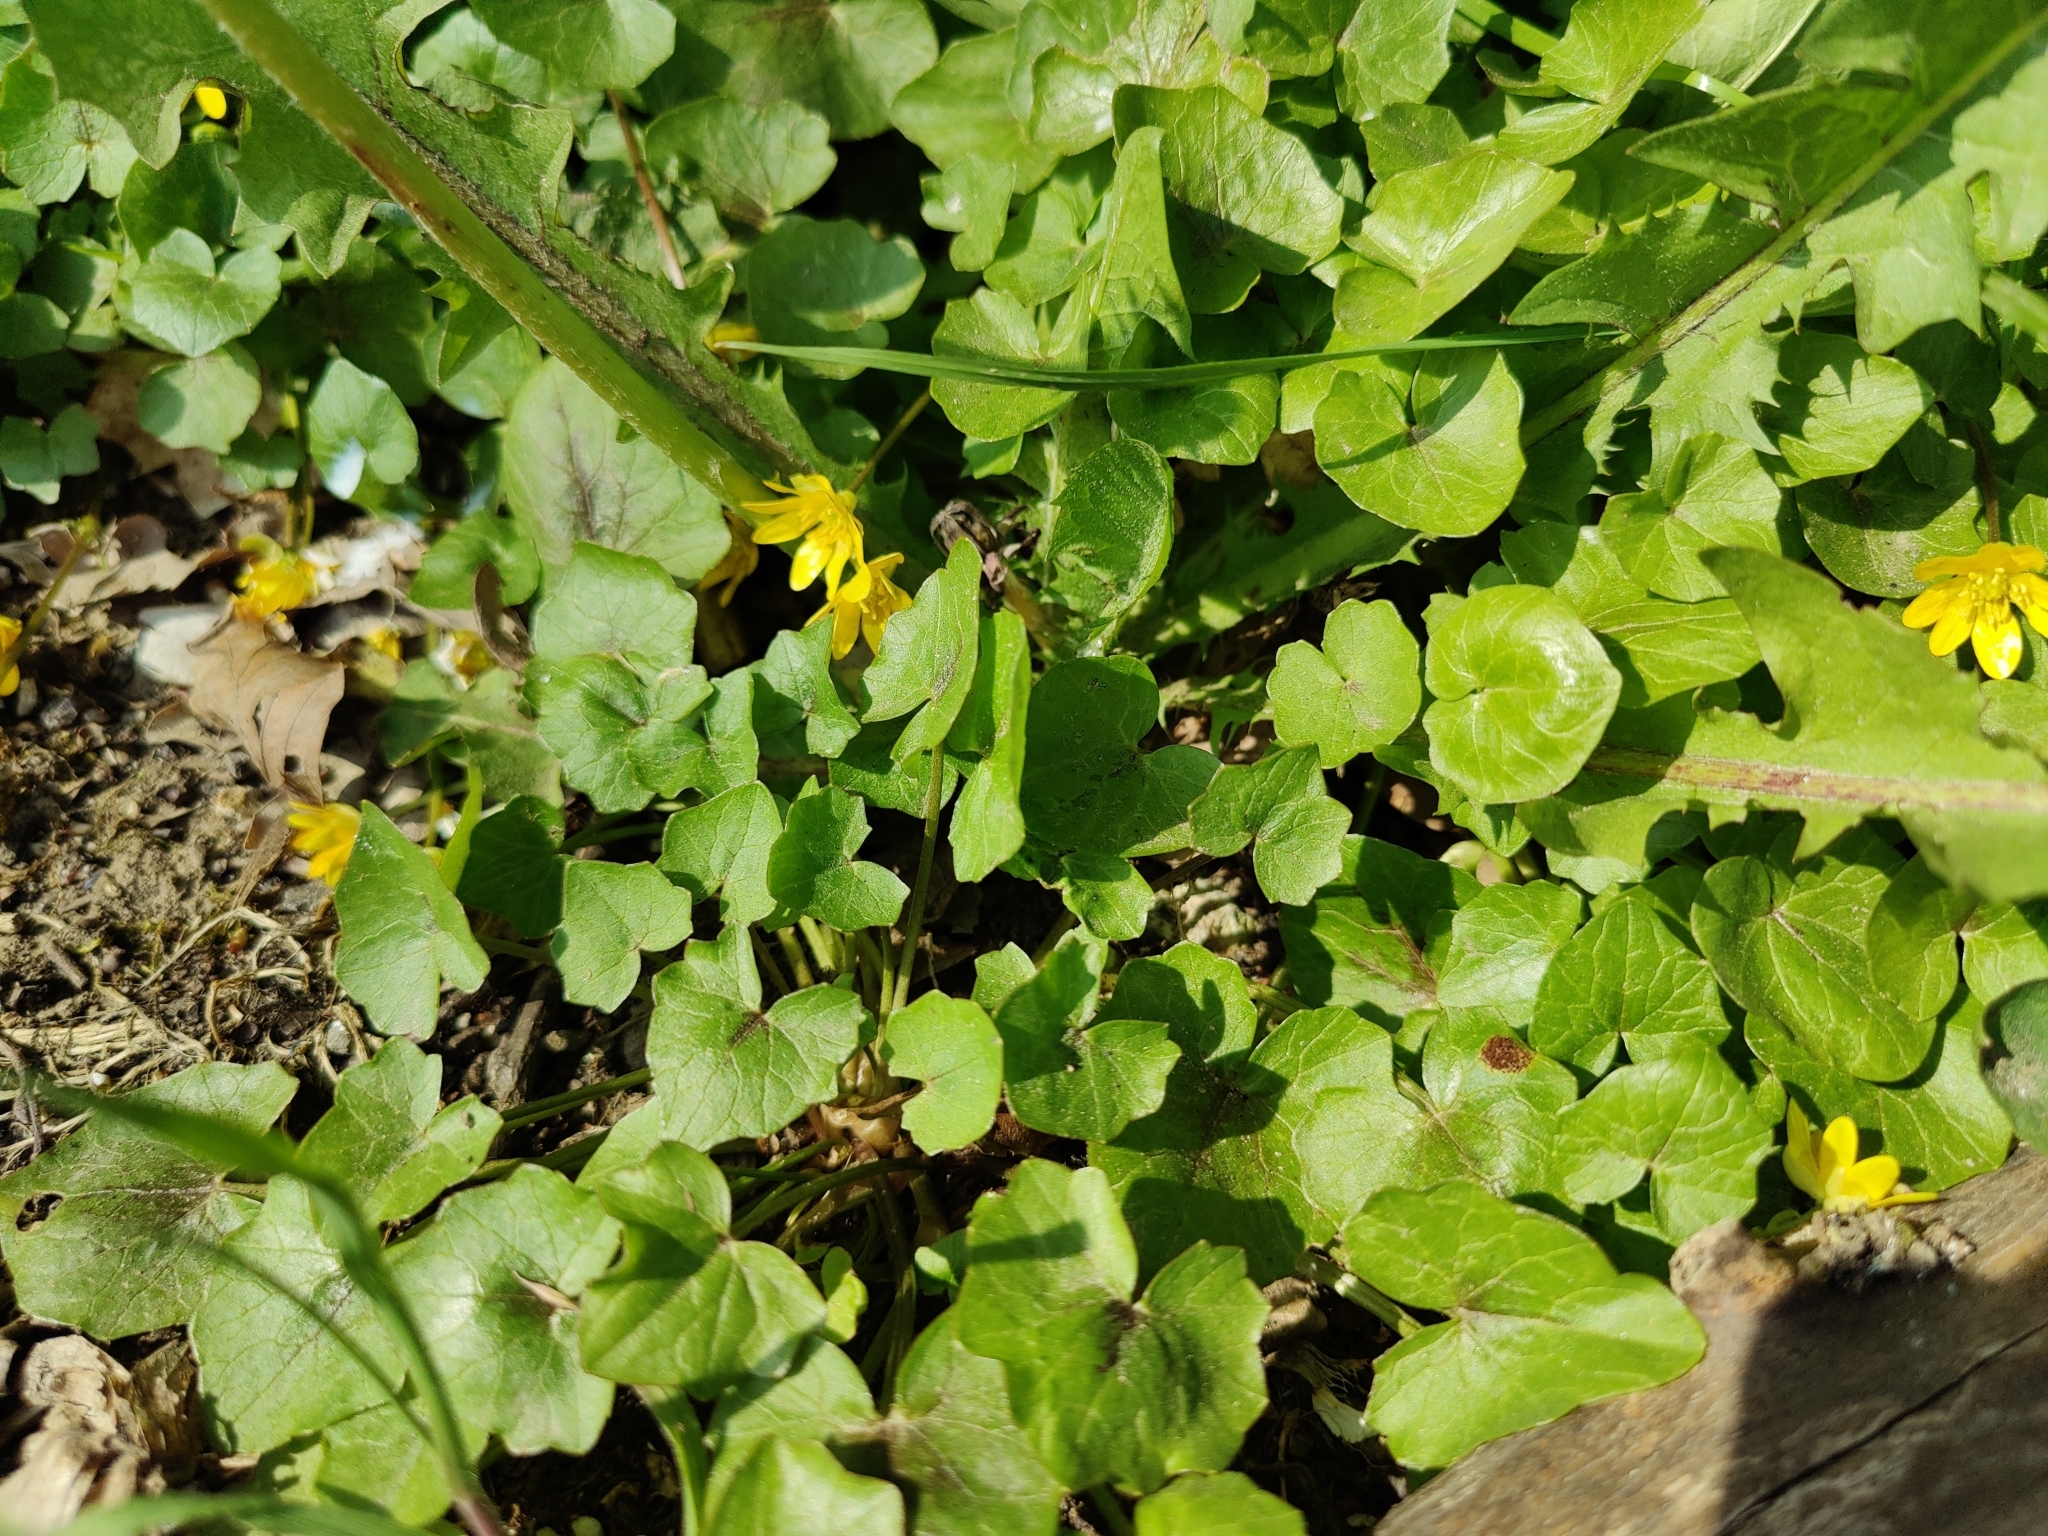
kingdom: Plantae
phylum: Tracheophyta
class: Magnoliopsida
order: Ranunculales
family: Ranunculaceae
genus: Ficaria
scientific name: Ficaria verna
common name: Lesser celandine
